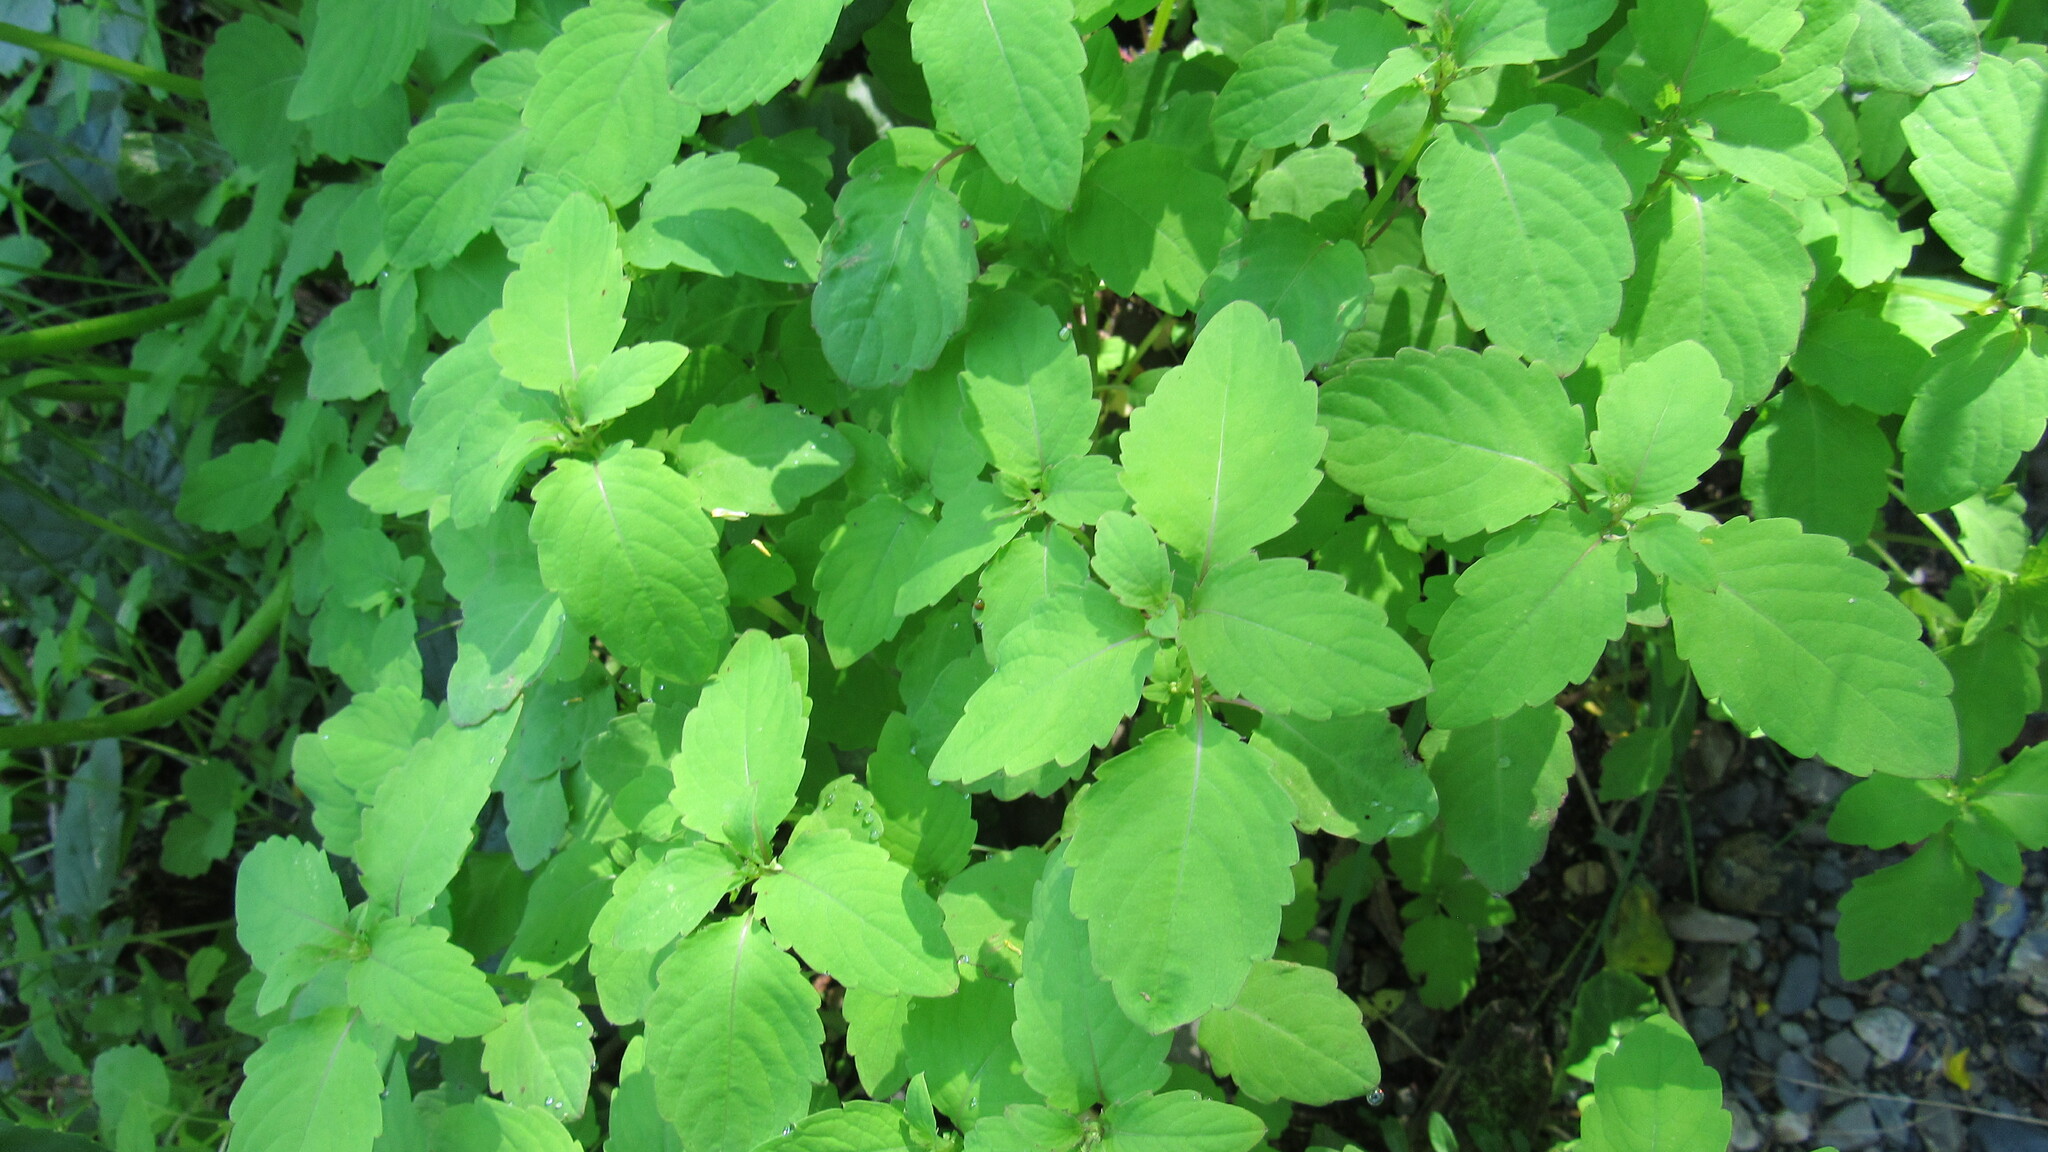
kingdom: Plantae
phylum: Tracheophyta
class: Magnoliopsida
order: Ericales
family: Balsaminaceae
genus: Impatiens
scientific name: Impatiens noli-tangere
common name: Touch-me-not balsam
